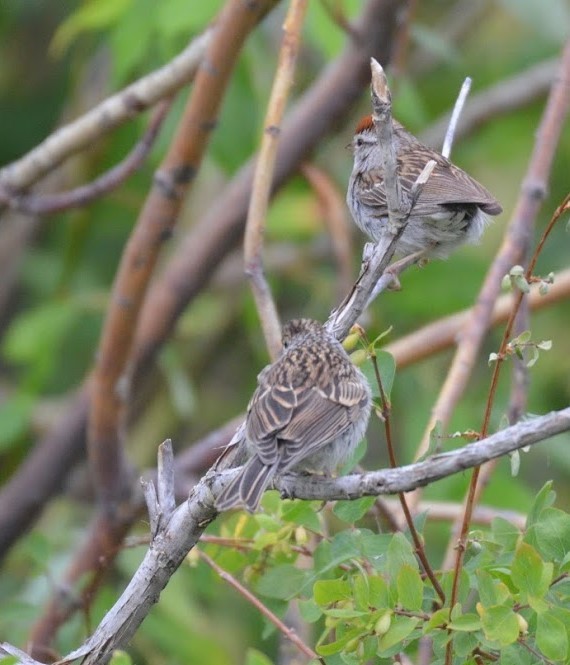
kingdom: Animalia
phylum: Chordata
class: Aves
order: Passeriformes
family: Passerellidae
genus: Spizella
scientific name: Spizella passerina
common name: Chipping sparrow
